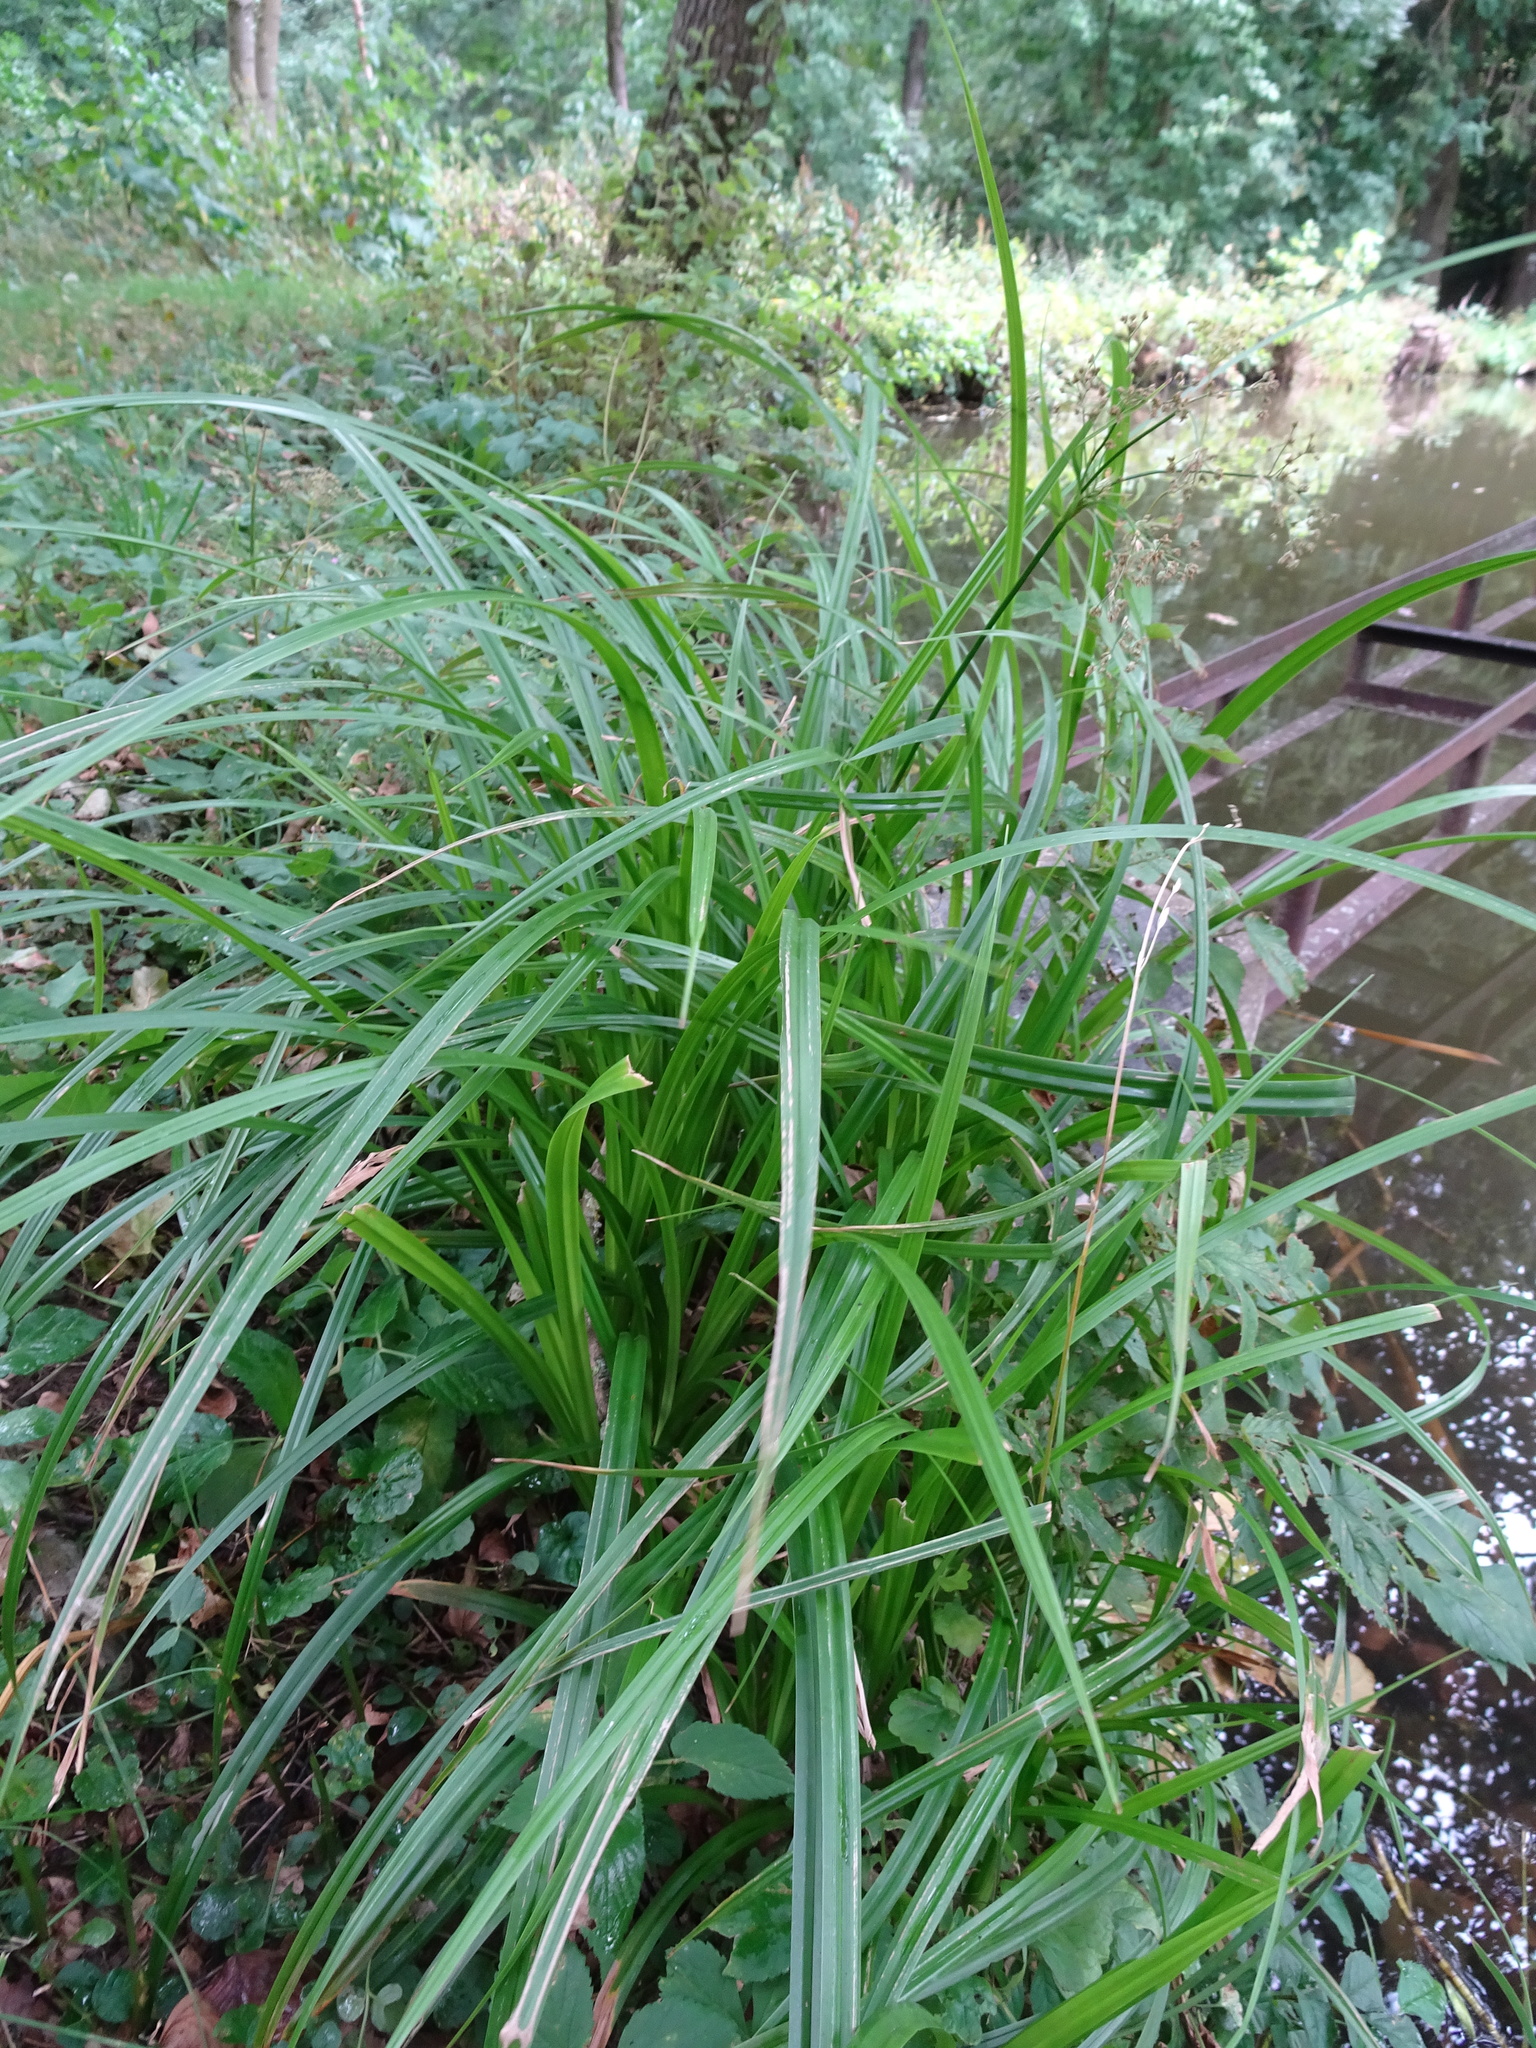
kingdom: Plantae
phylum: Tracheophyta
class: Liliopsida
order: Poales
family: Cyperaceae
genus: Scirpus
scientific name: Scirpus sylvaticus
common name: Wood club-rush
